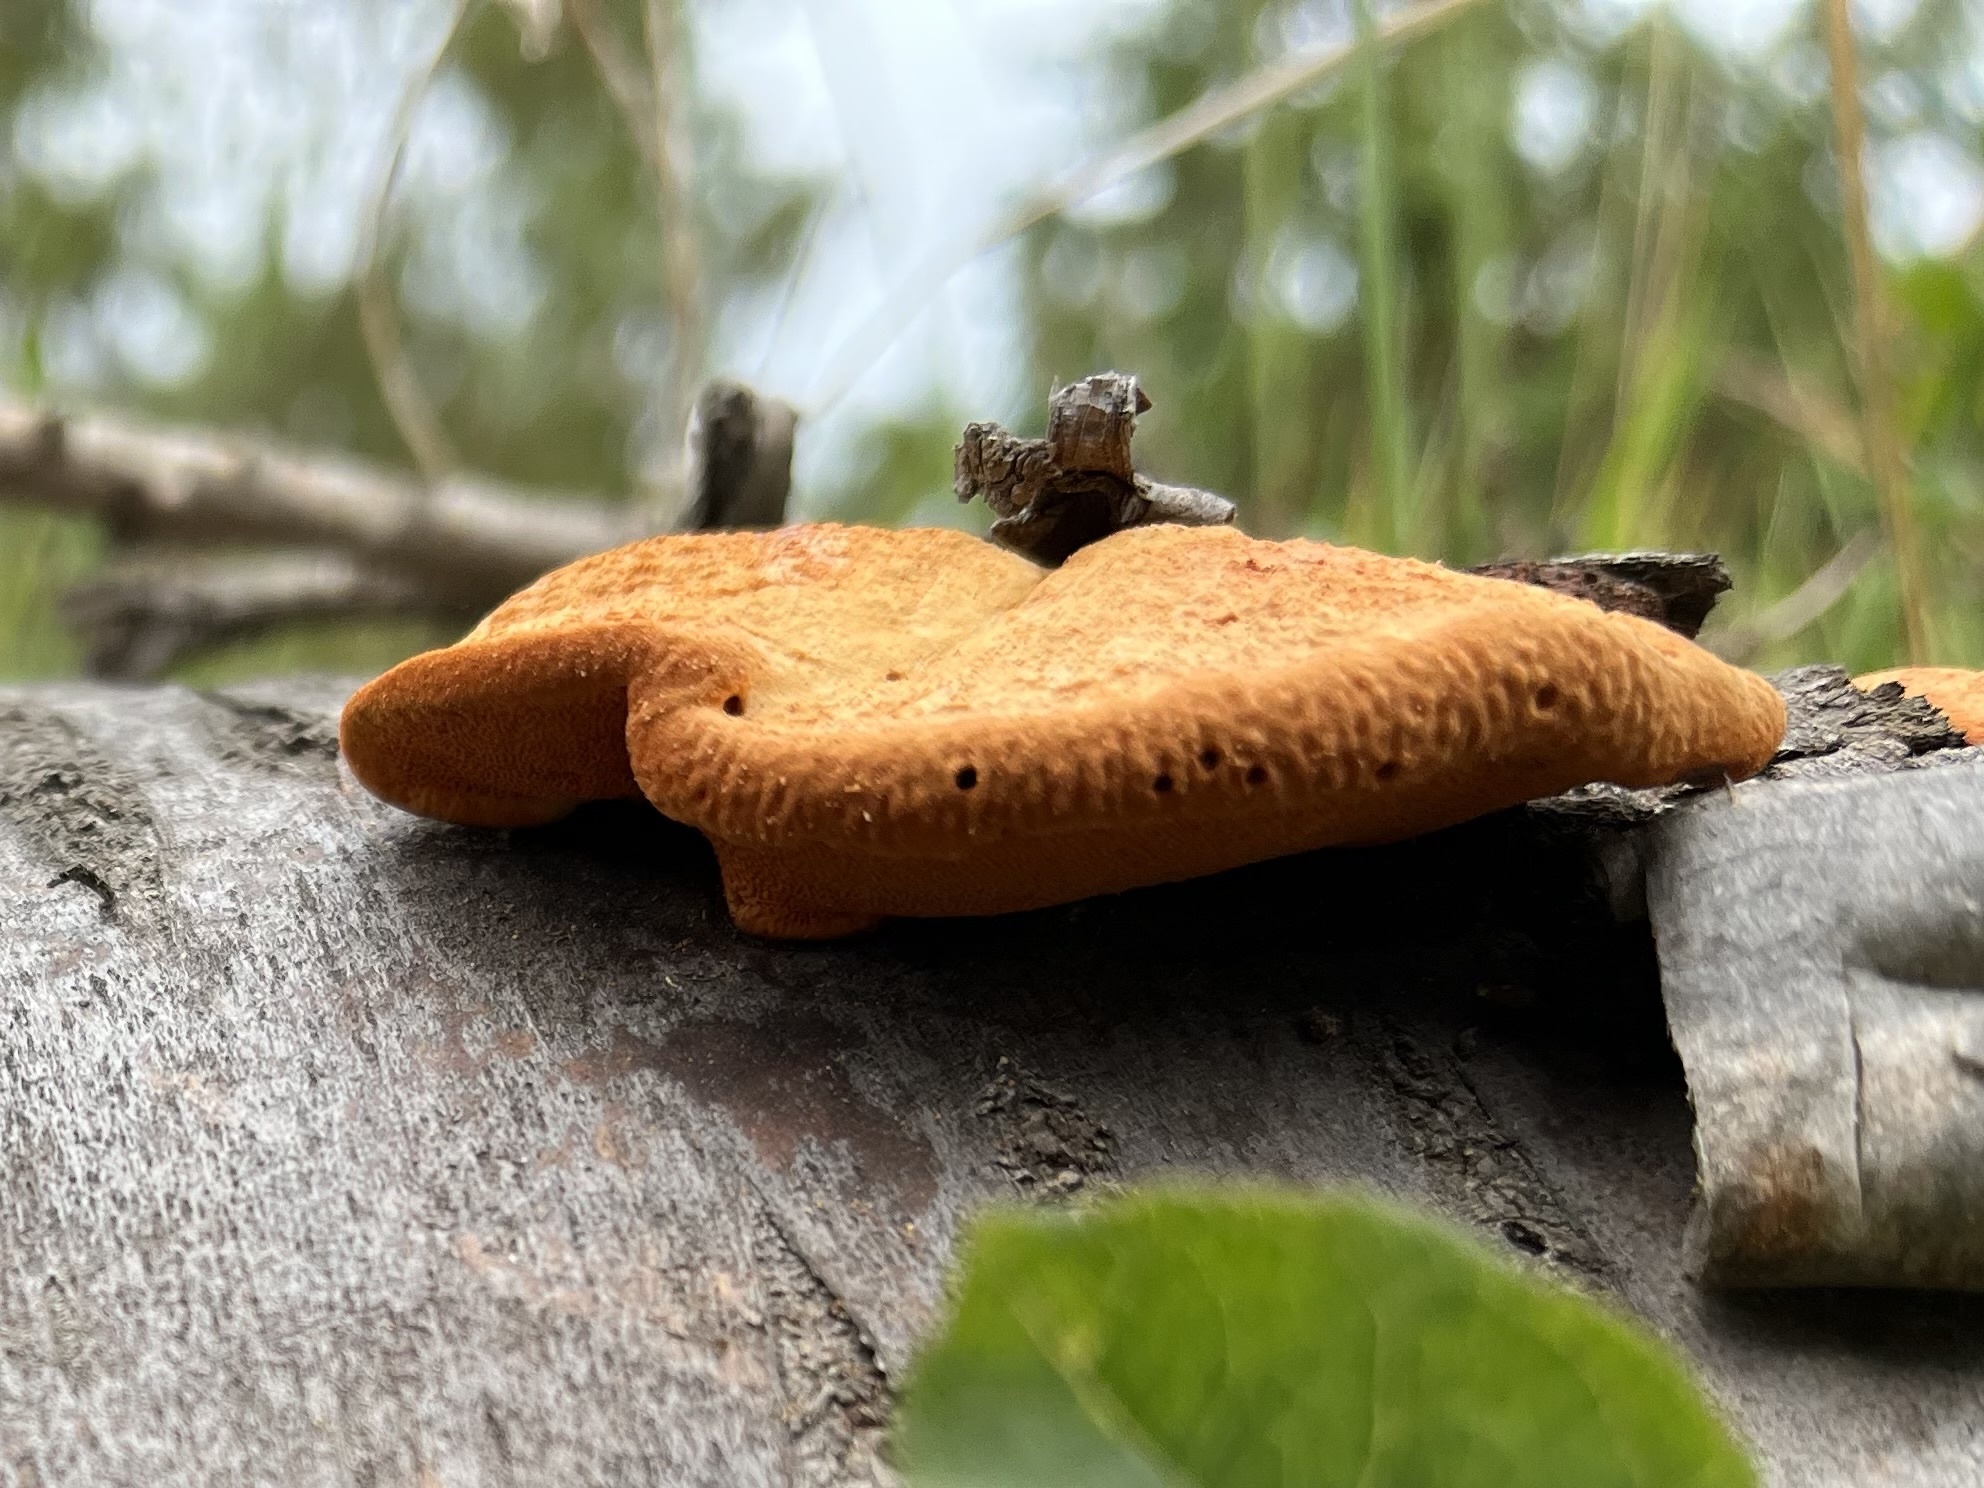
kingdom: Fungi
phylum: Basidiomycota
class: Agaricomycetes
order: Polyporales
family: Polyporaceae
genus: Trametes
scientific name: Trametes cinnabarina
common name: Northern cinnabar polypore
